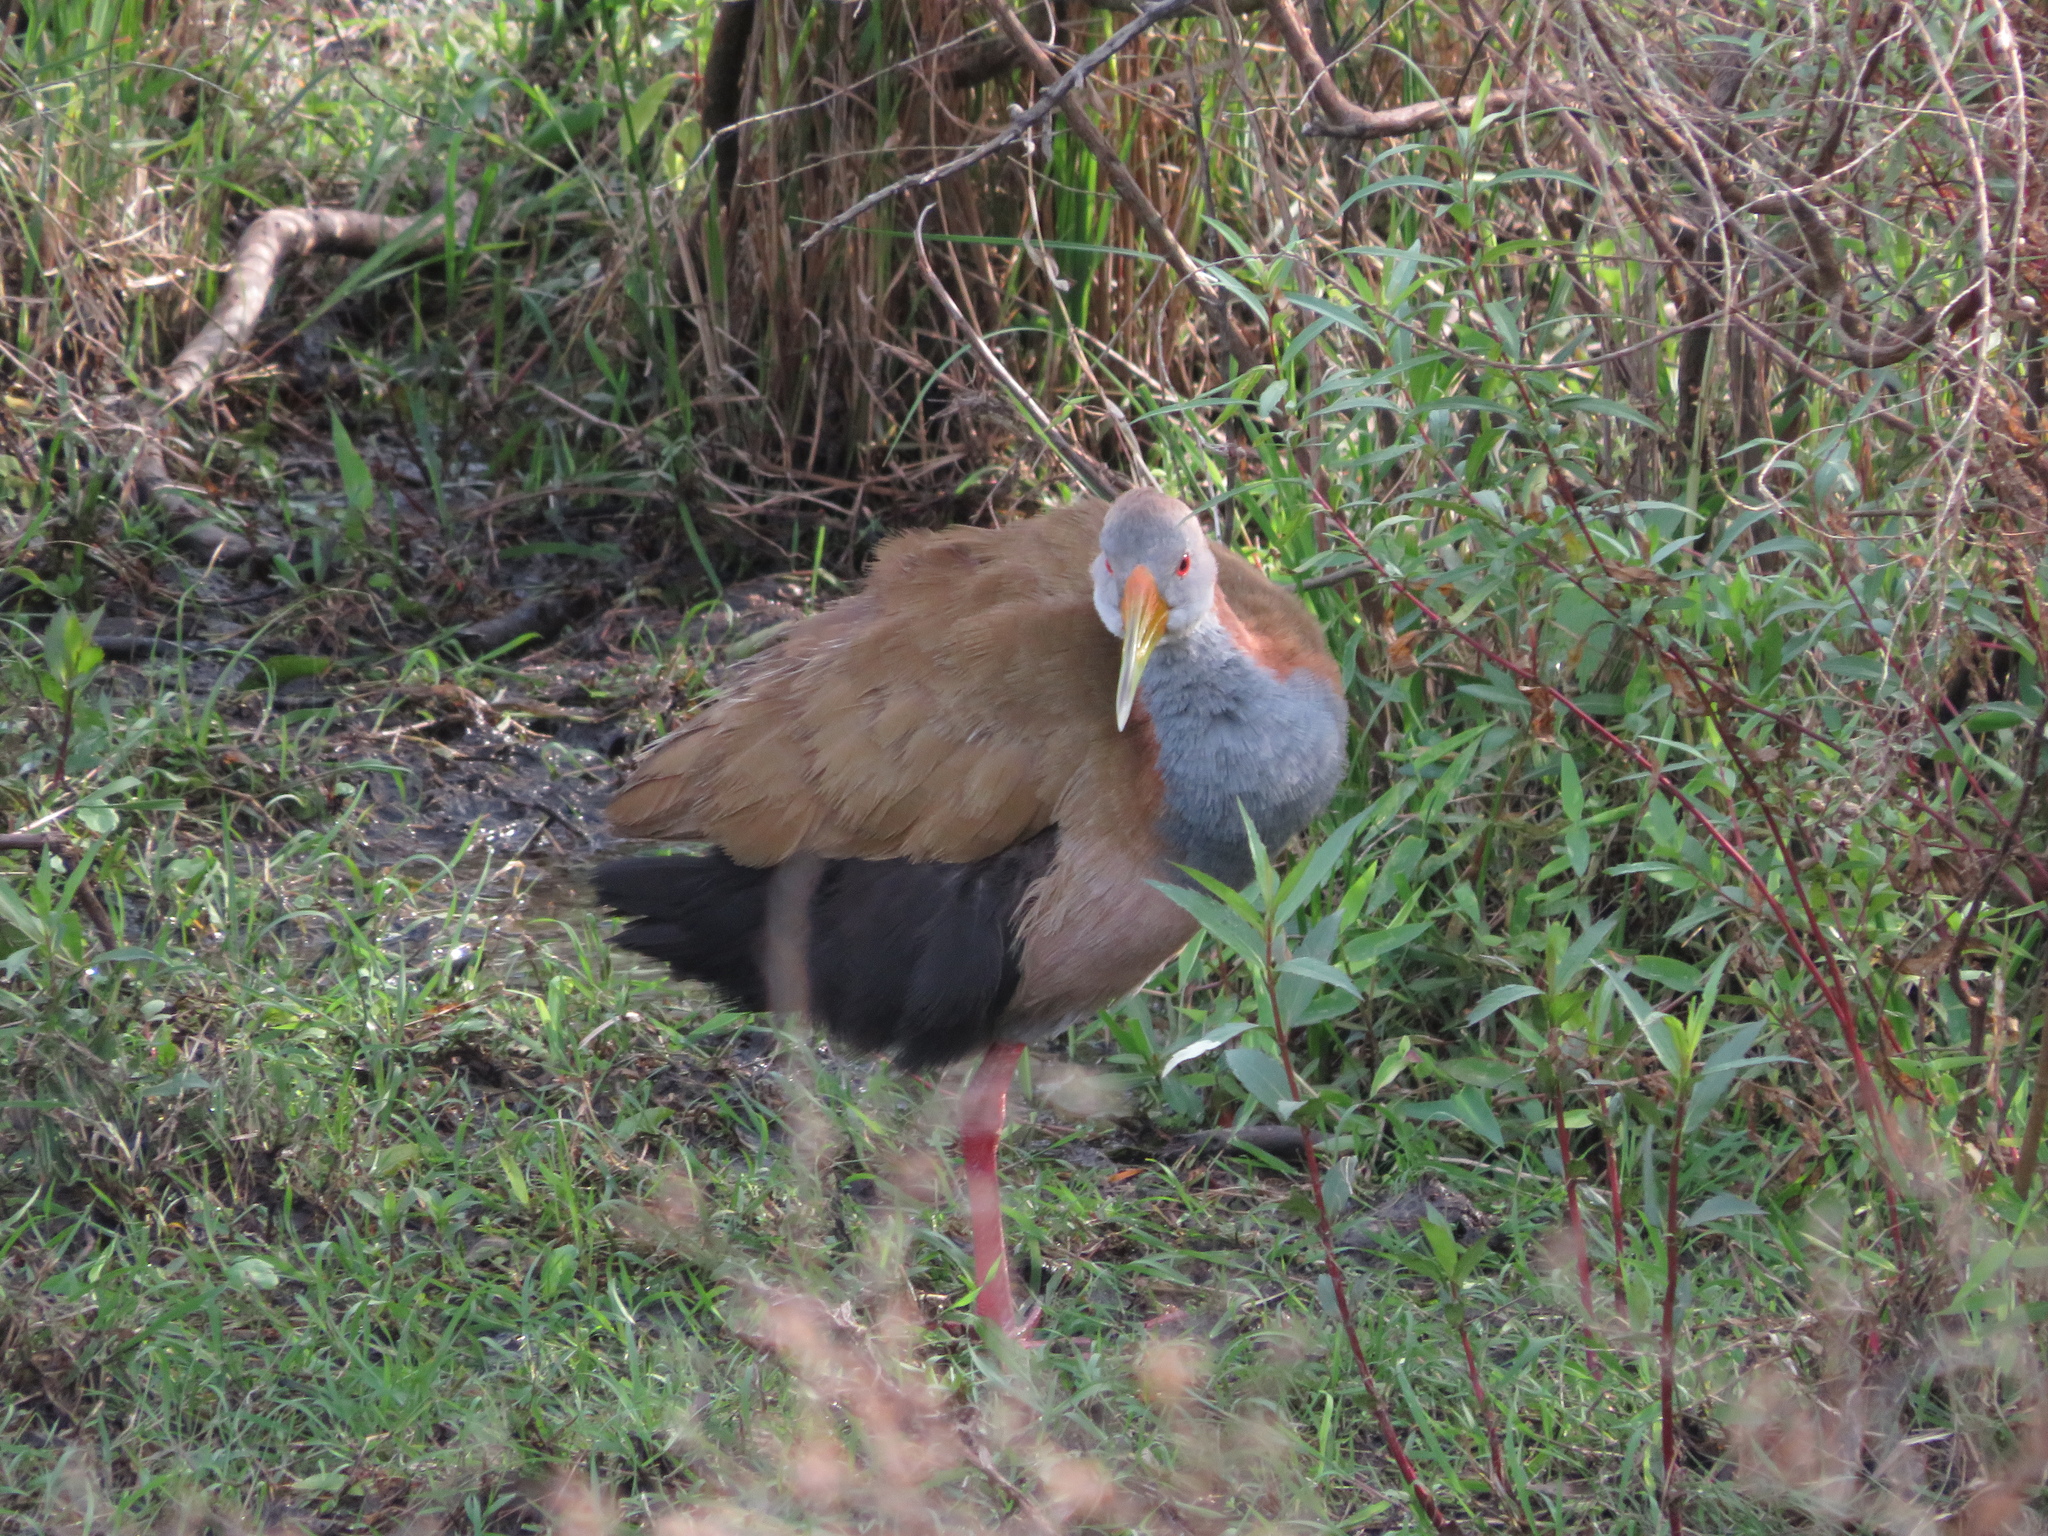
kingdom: Animalia
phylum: Chordata
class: Aves
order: Gruiformes
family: Rallidae
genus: Aramides
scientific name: Aramides ypecaha
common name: Giant wood rail
